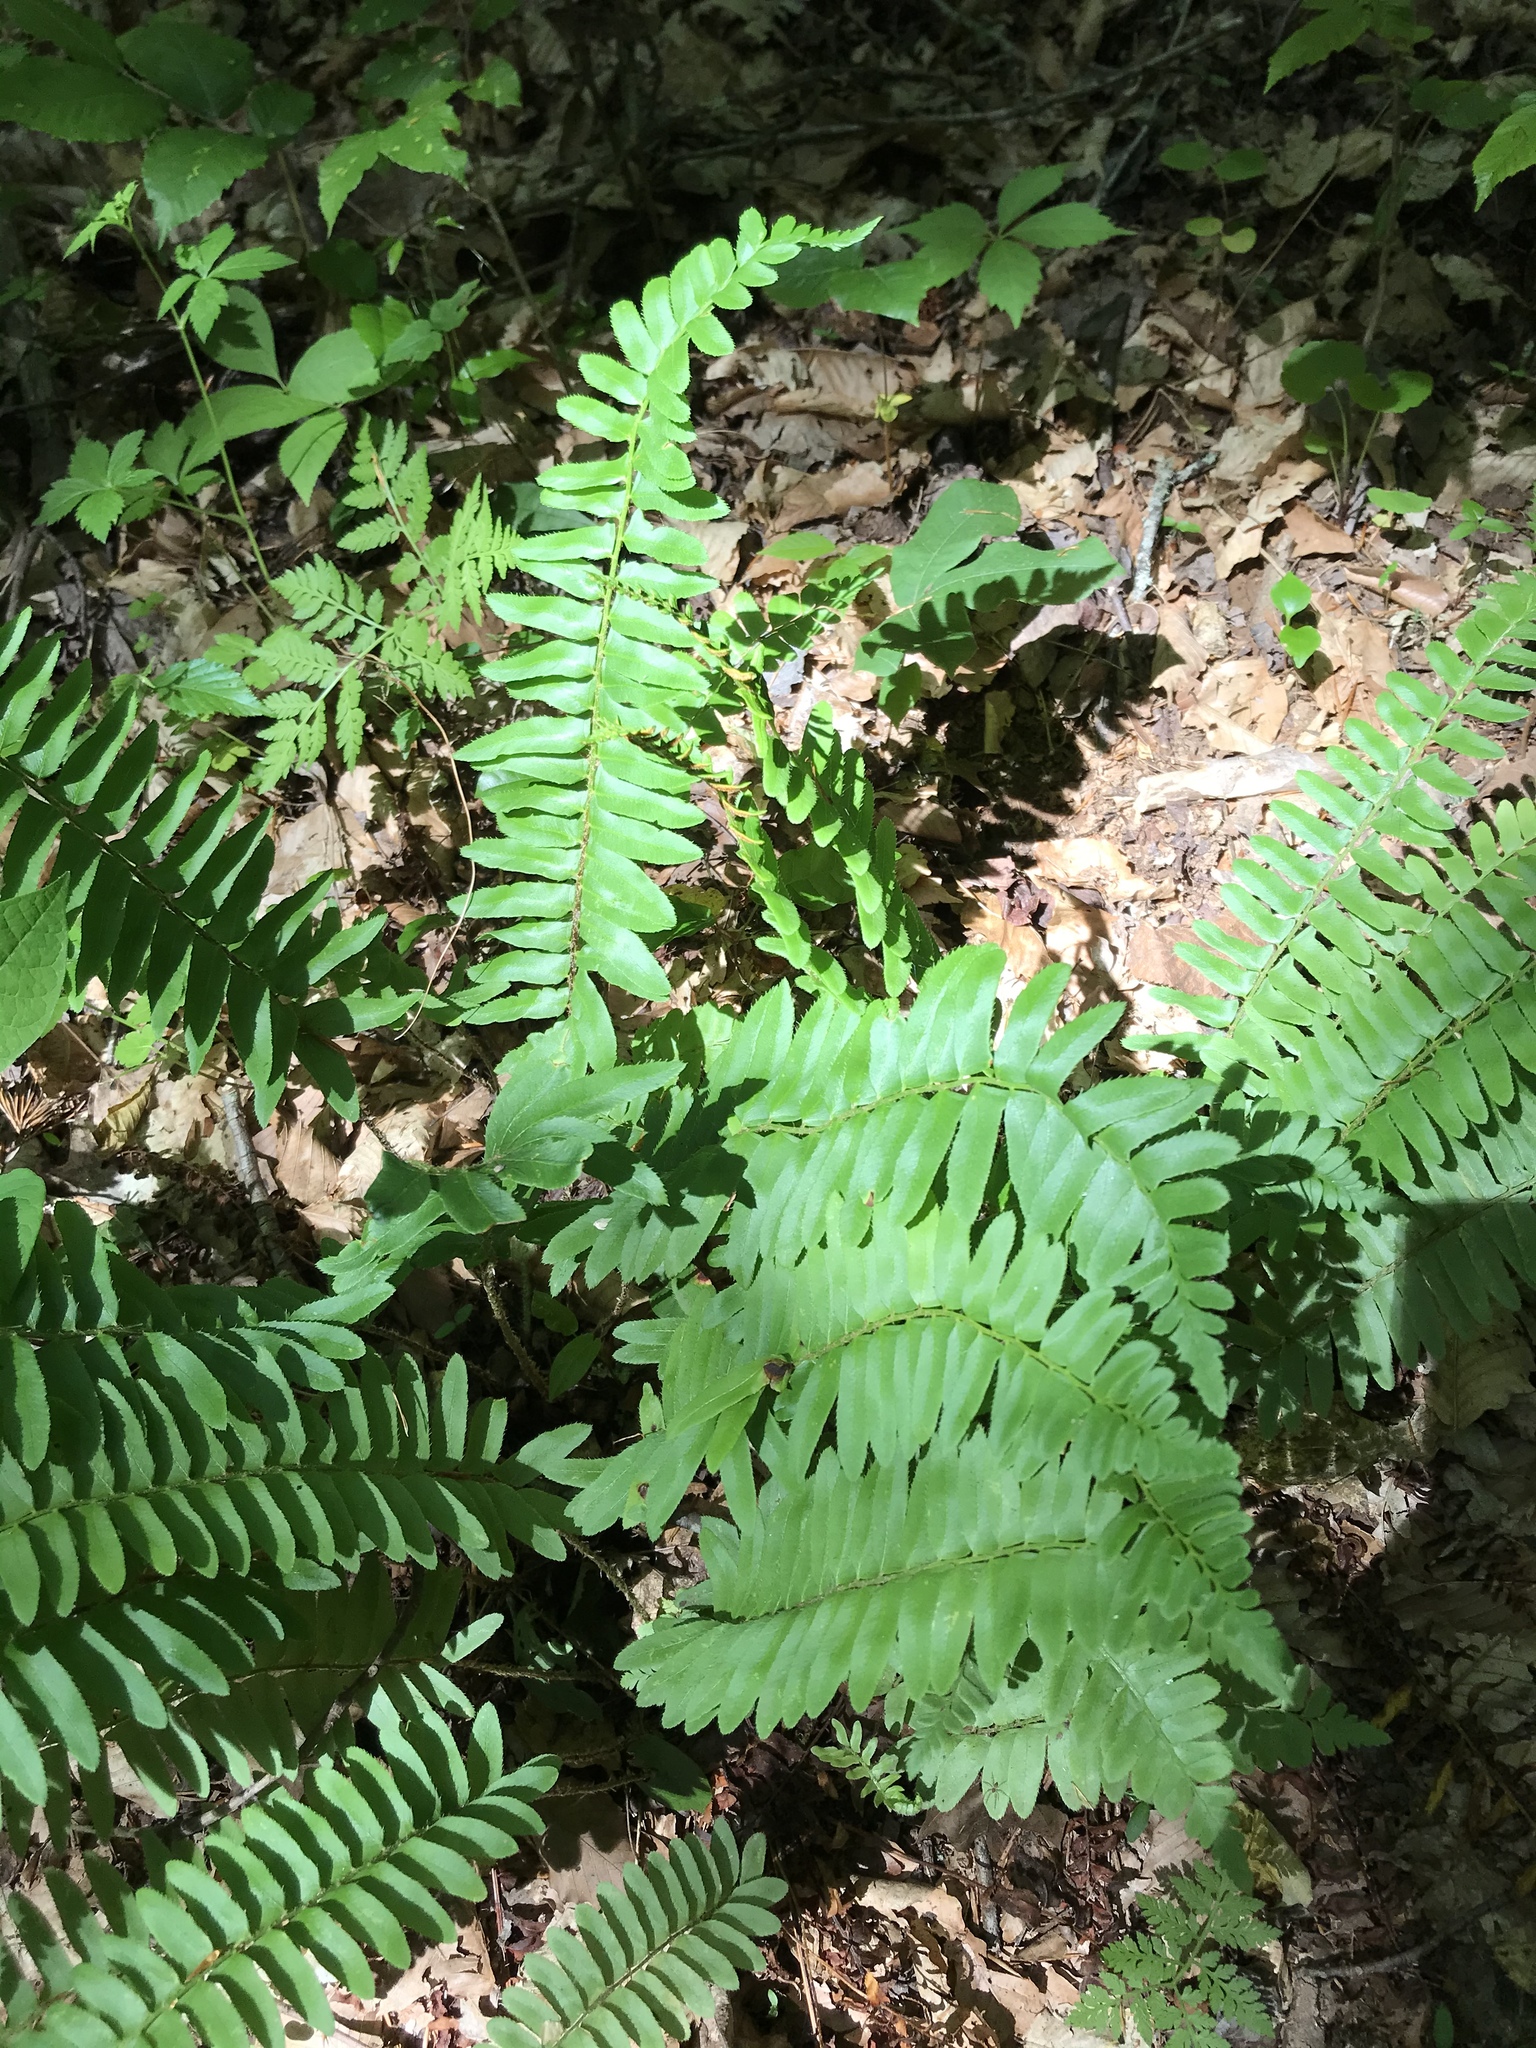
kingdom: Plantae
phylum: Tracheophyta
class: Polypodiopsida
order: Polypodiales
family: Dryopteridaceae
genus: Polystichum
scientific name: Polystichum acrostichoides
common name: Christmas fern
